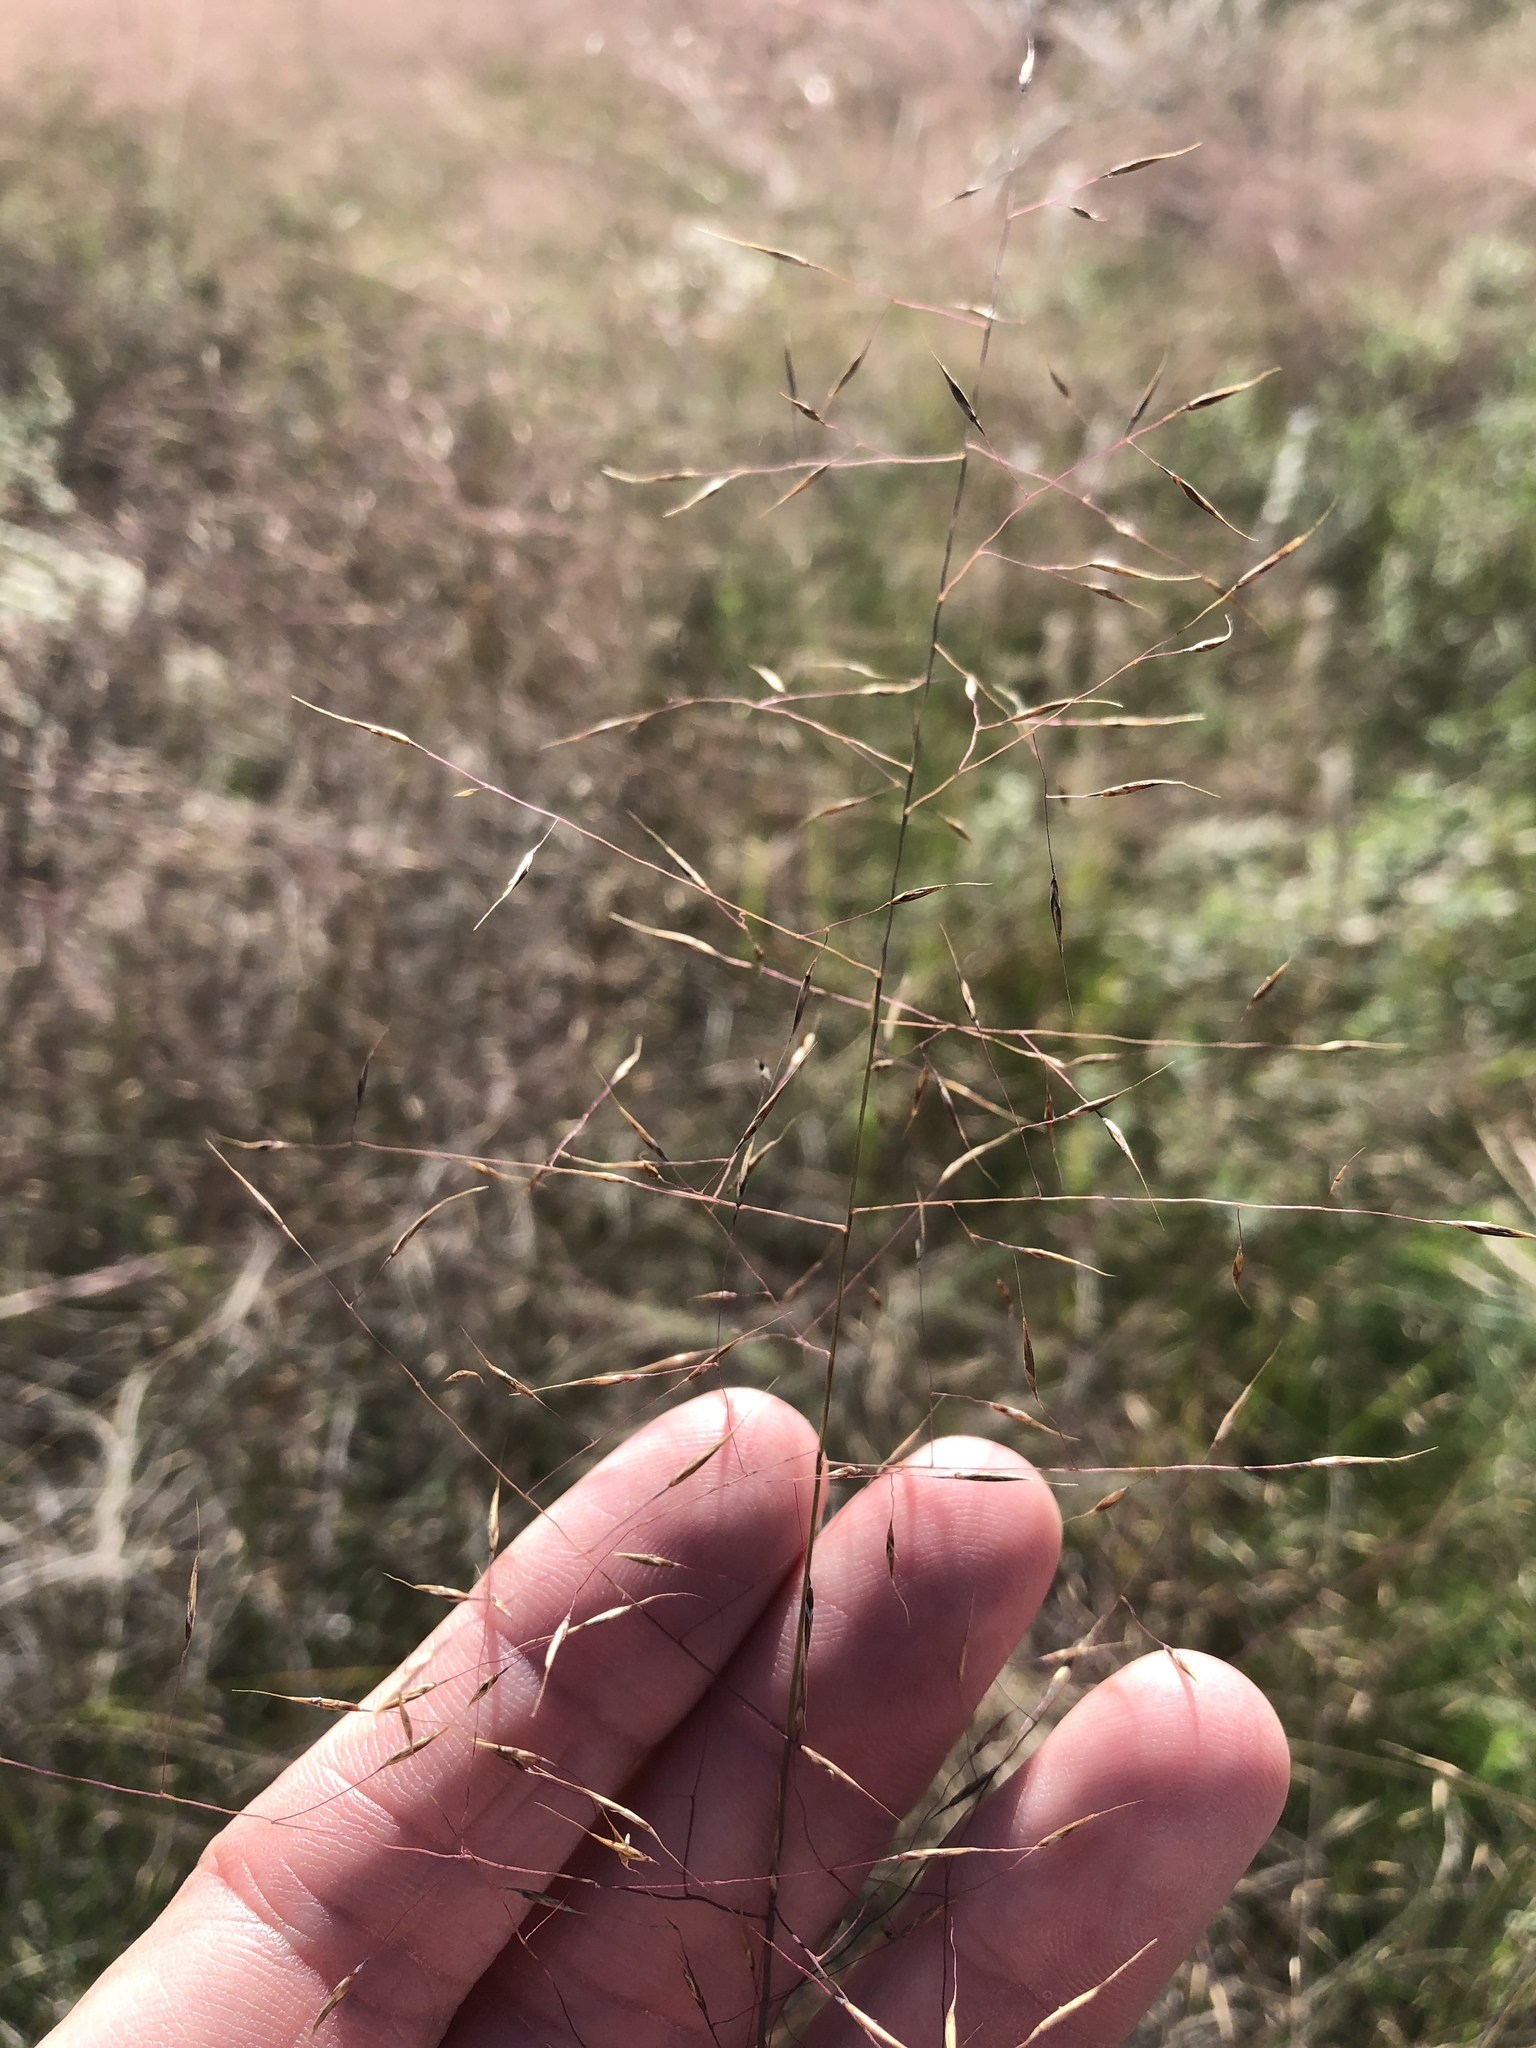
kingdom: Plantae
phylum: Tracheophyta
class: Liliopsida
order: Poales
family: Poaceae
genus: Muhlenbergia
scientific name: Muhlenbergia reverchonii
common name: Seep muhly
